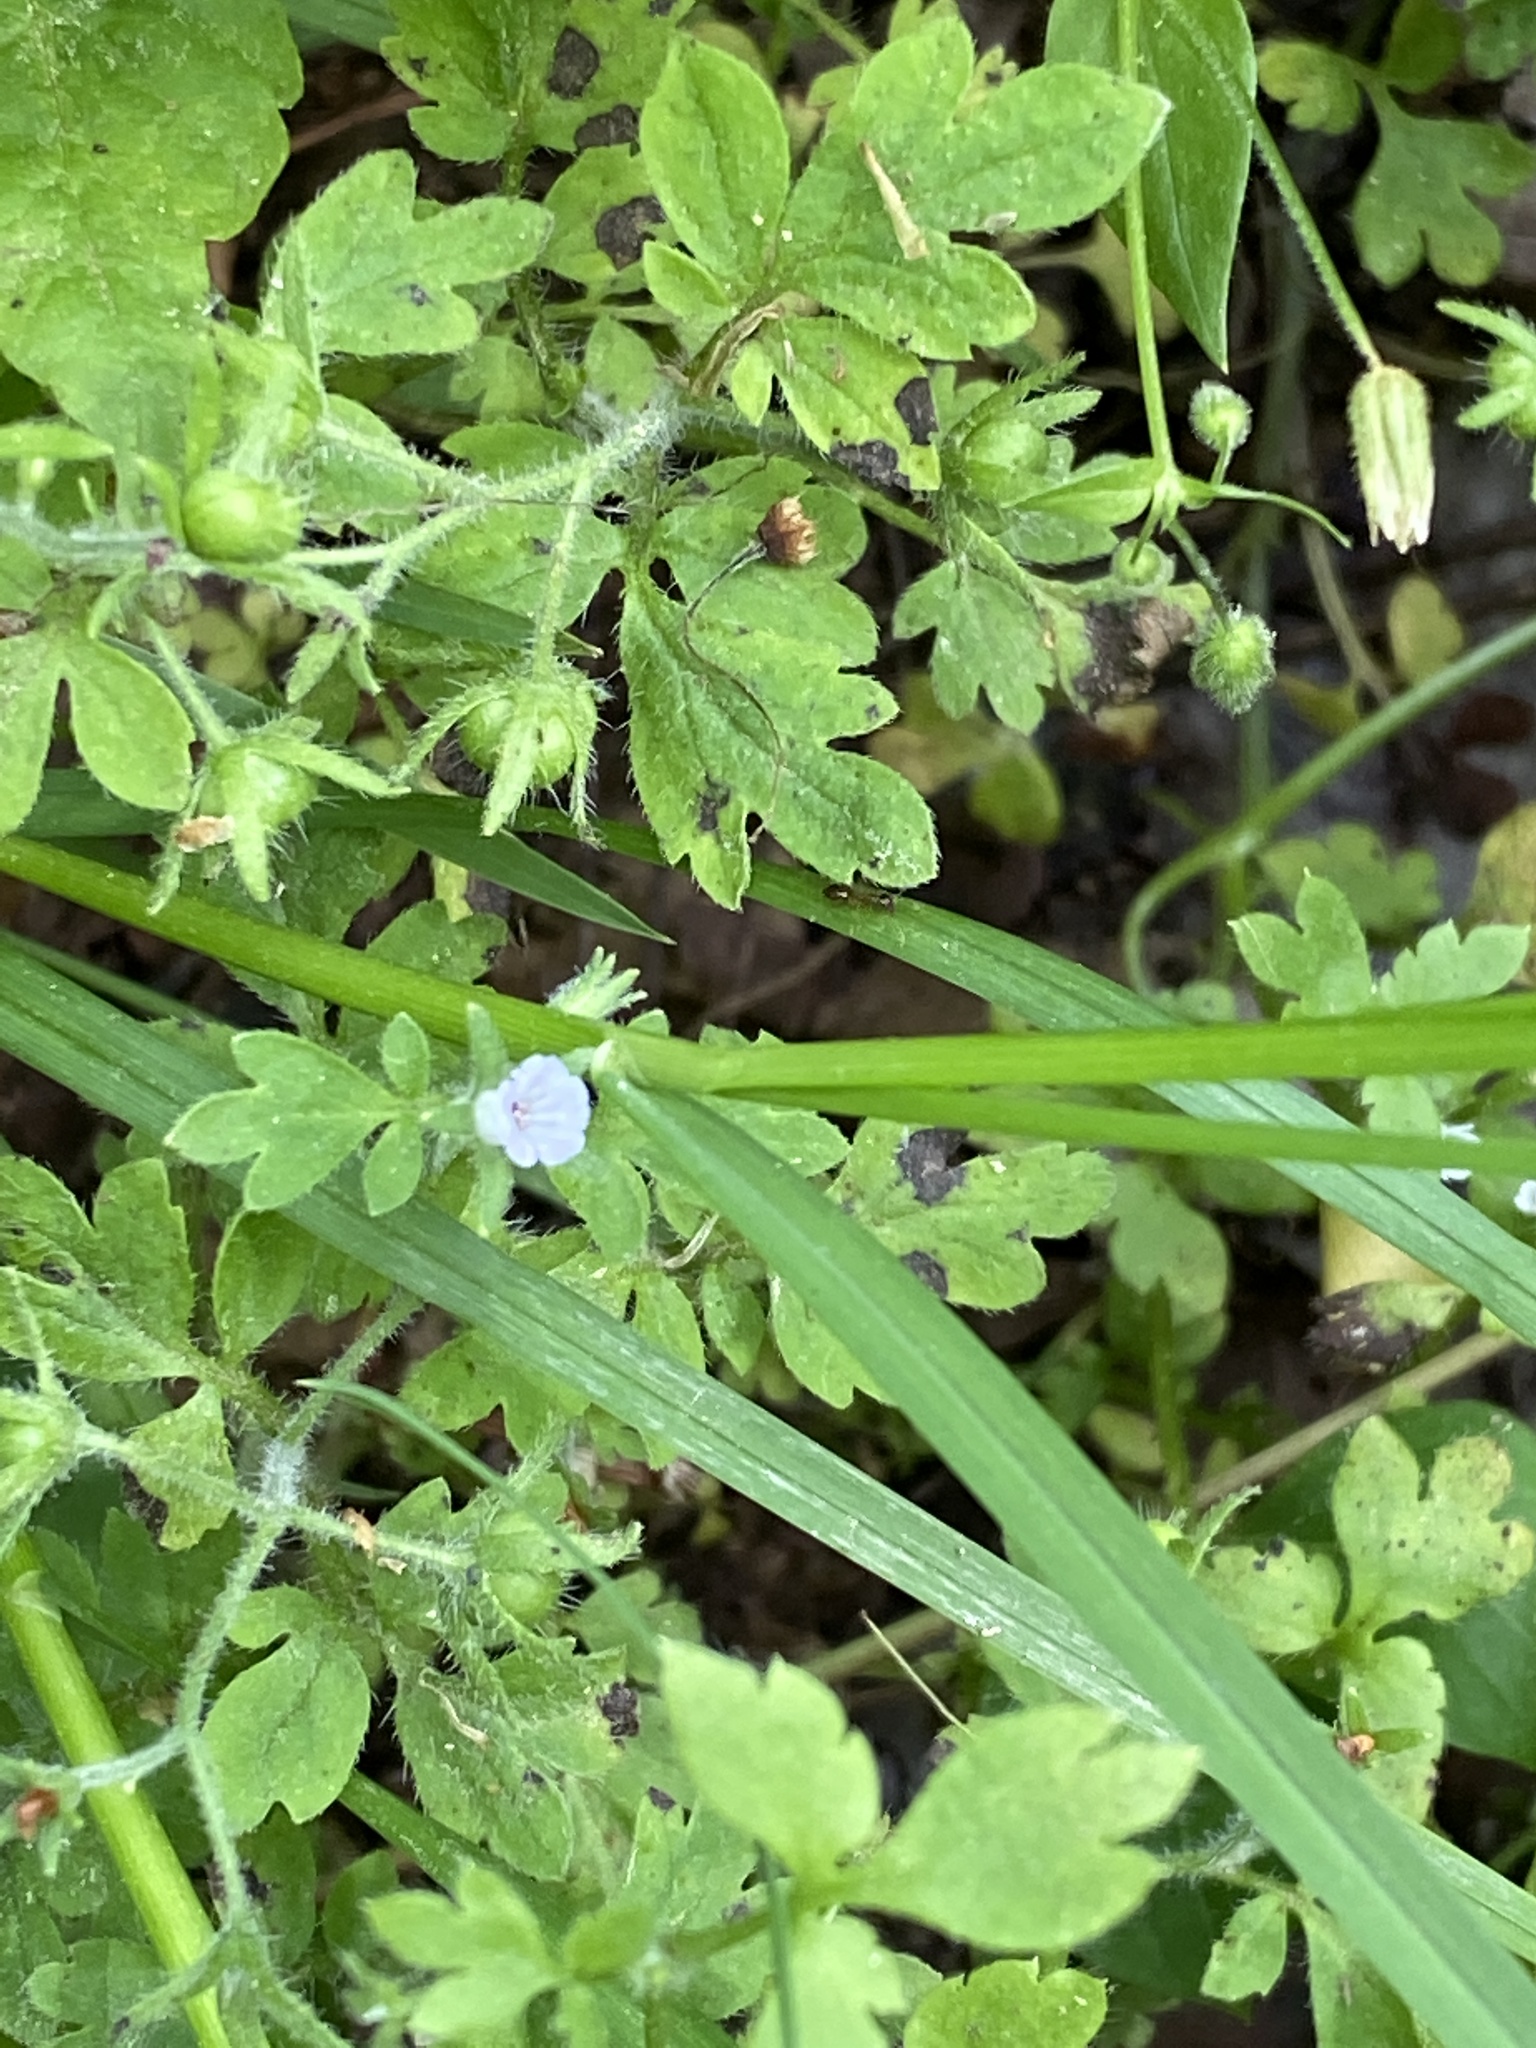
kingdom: Plantae
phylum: Tracheophyta
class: Magnoliopsida
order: Boraginales
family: Hydrophyllaceae
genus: Phacelia
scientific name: Phacelia covillei
